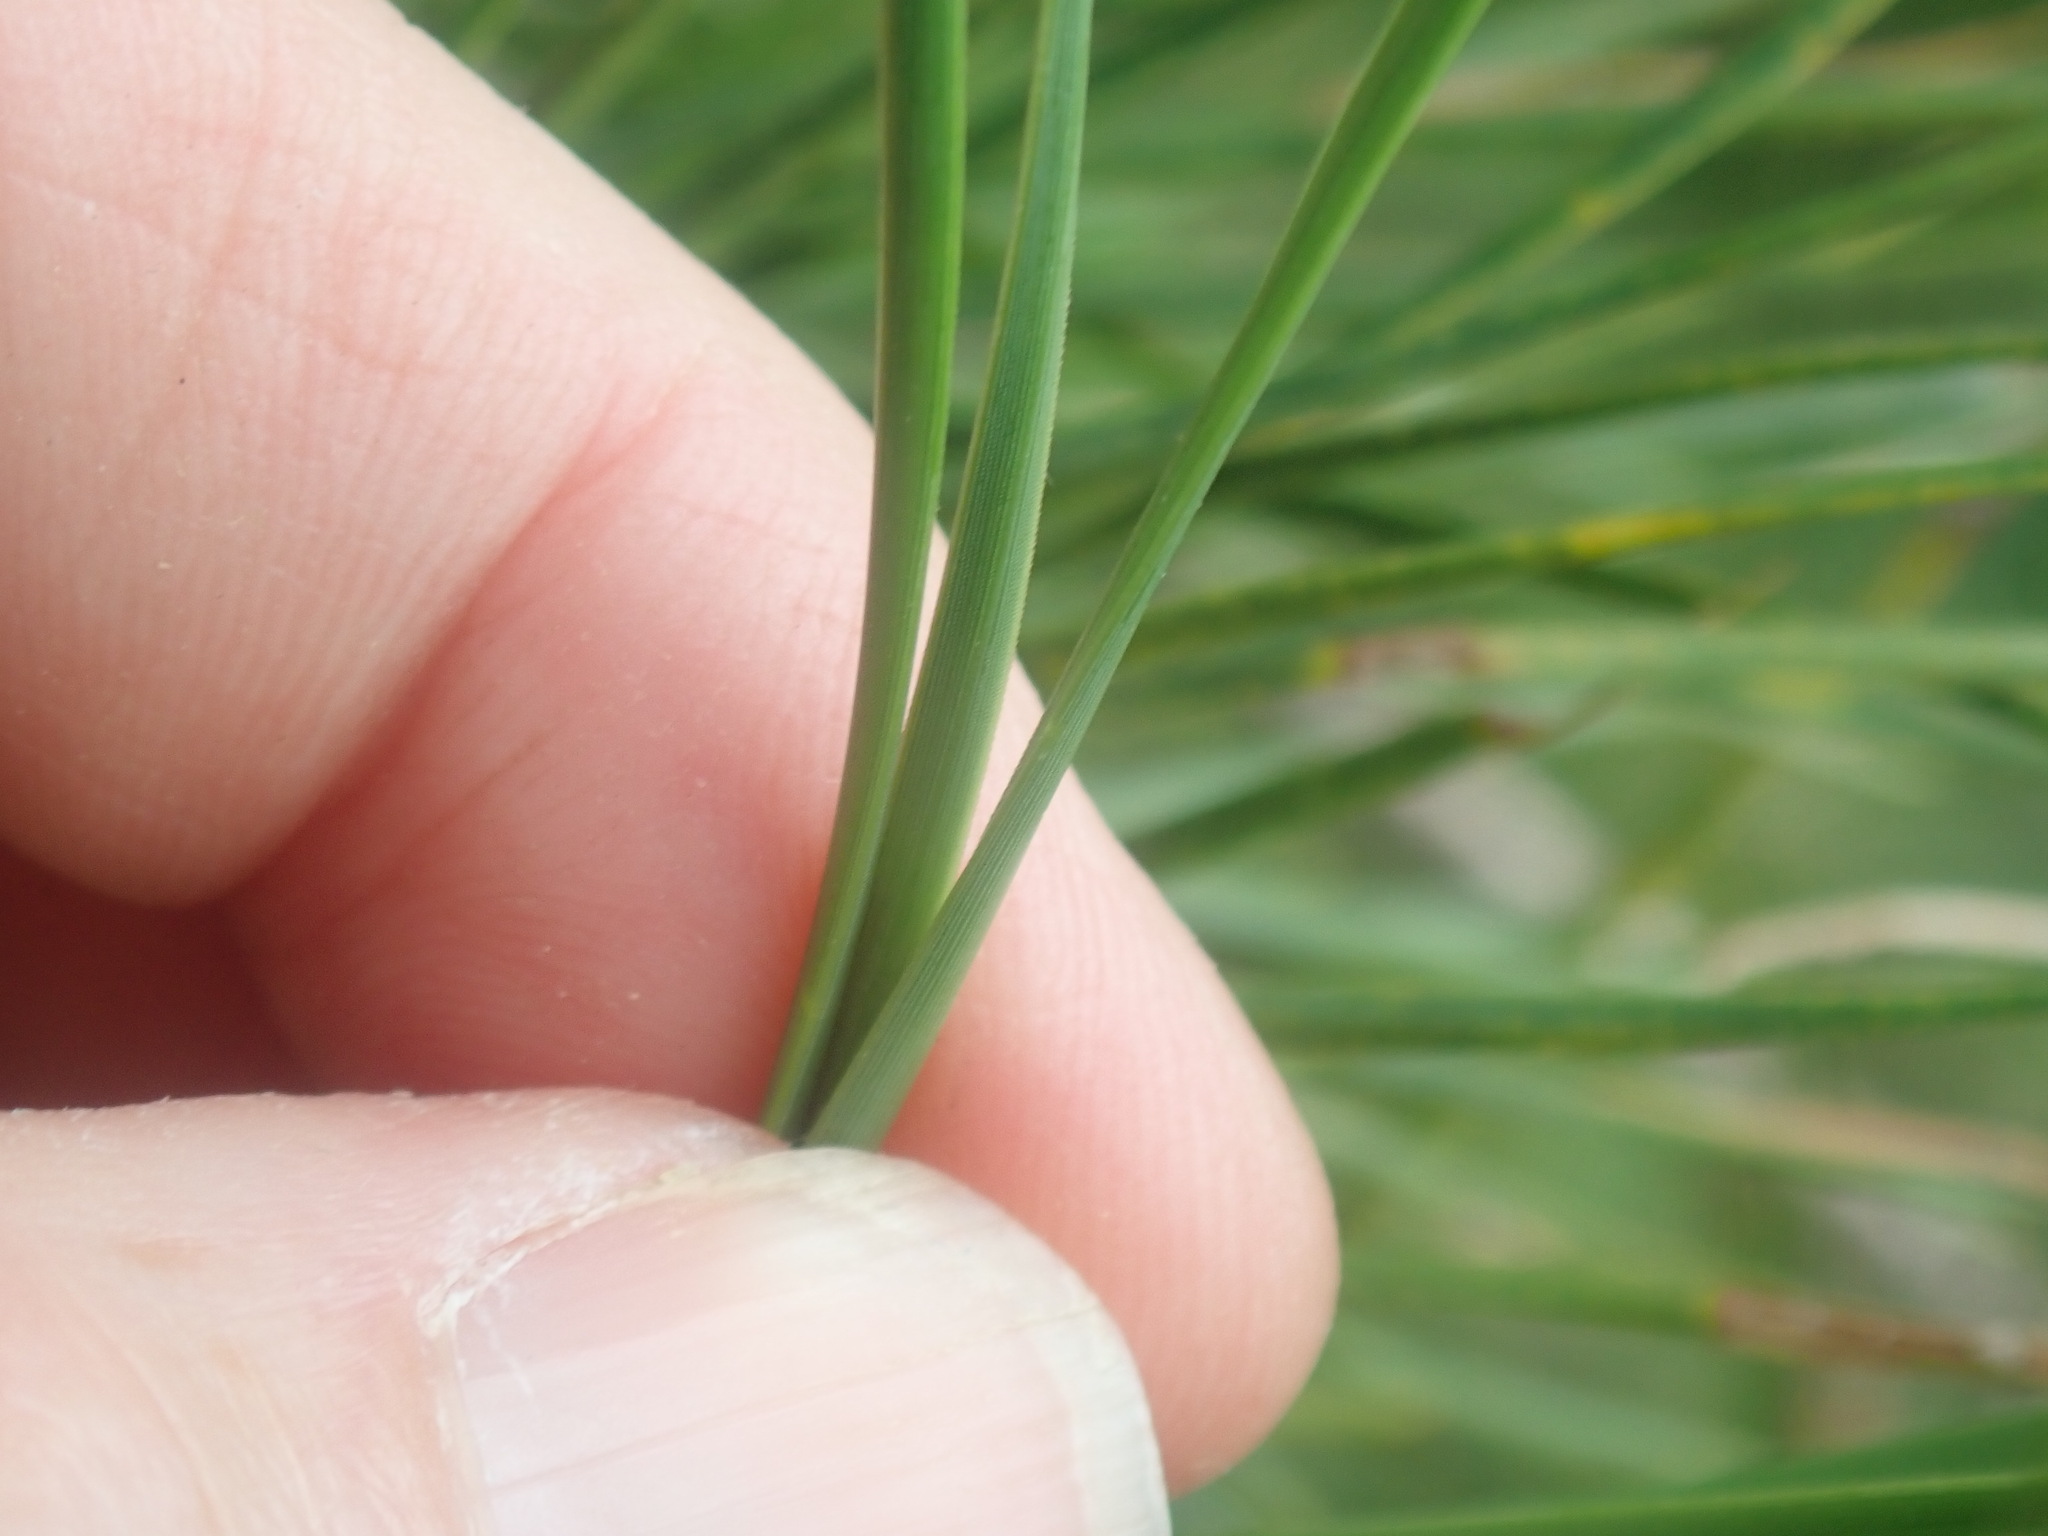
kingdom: Plantae
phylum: Tracheophyta
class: Pinopsida
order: Pinales
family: Pinaceae
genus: Pinus
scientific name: Pinus rigida
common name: Pitch pine
